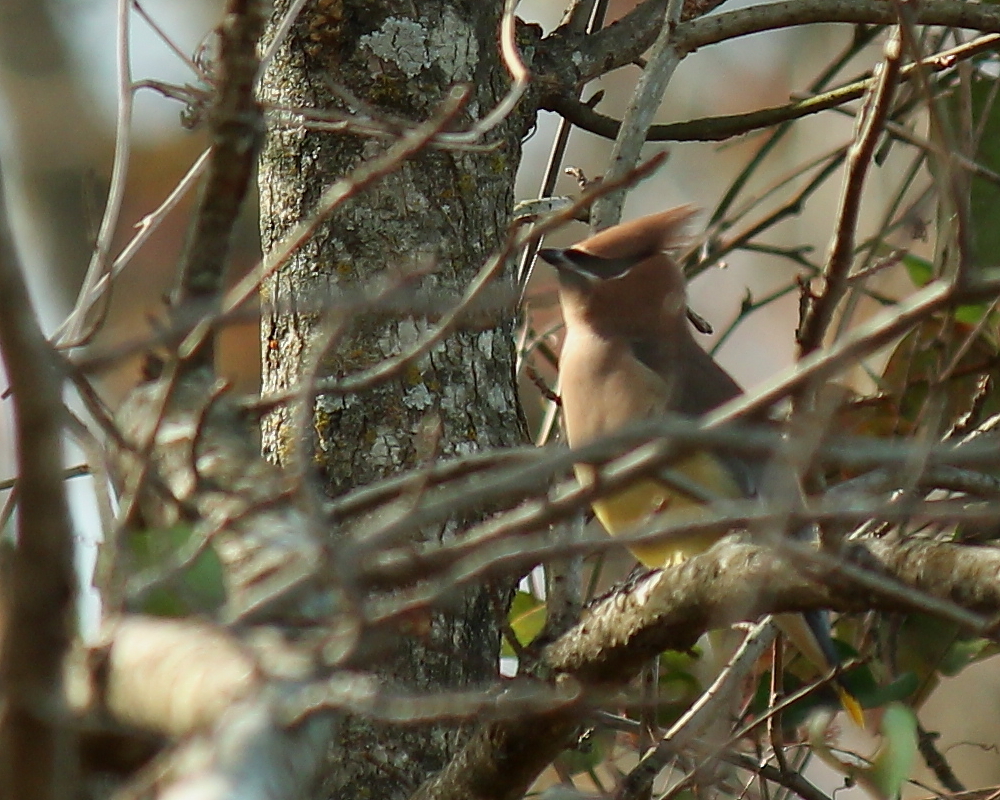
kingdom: Animalia
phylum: Chordata
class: Aves
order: Passeriformes
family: Bombycillidae
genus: Bombycilla
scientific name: Bombycilla cedrorum
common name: Cedar waxwing
